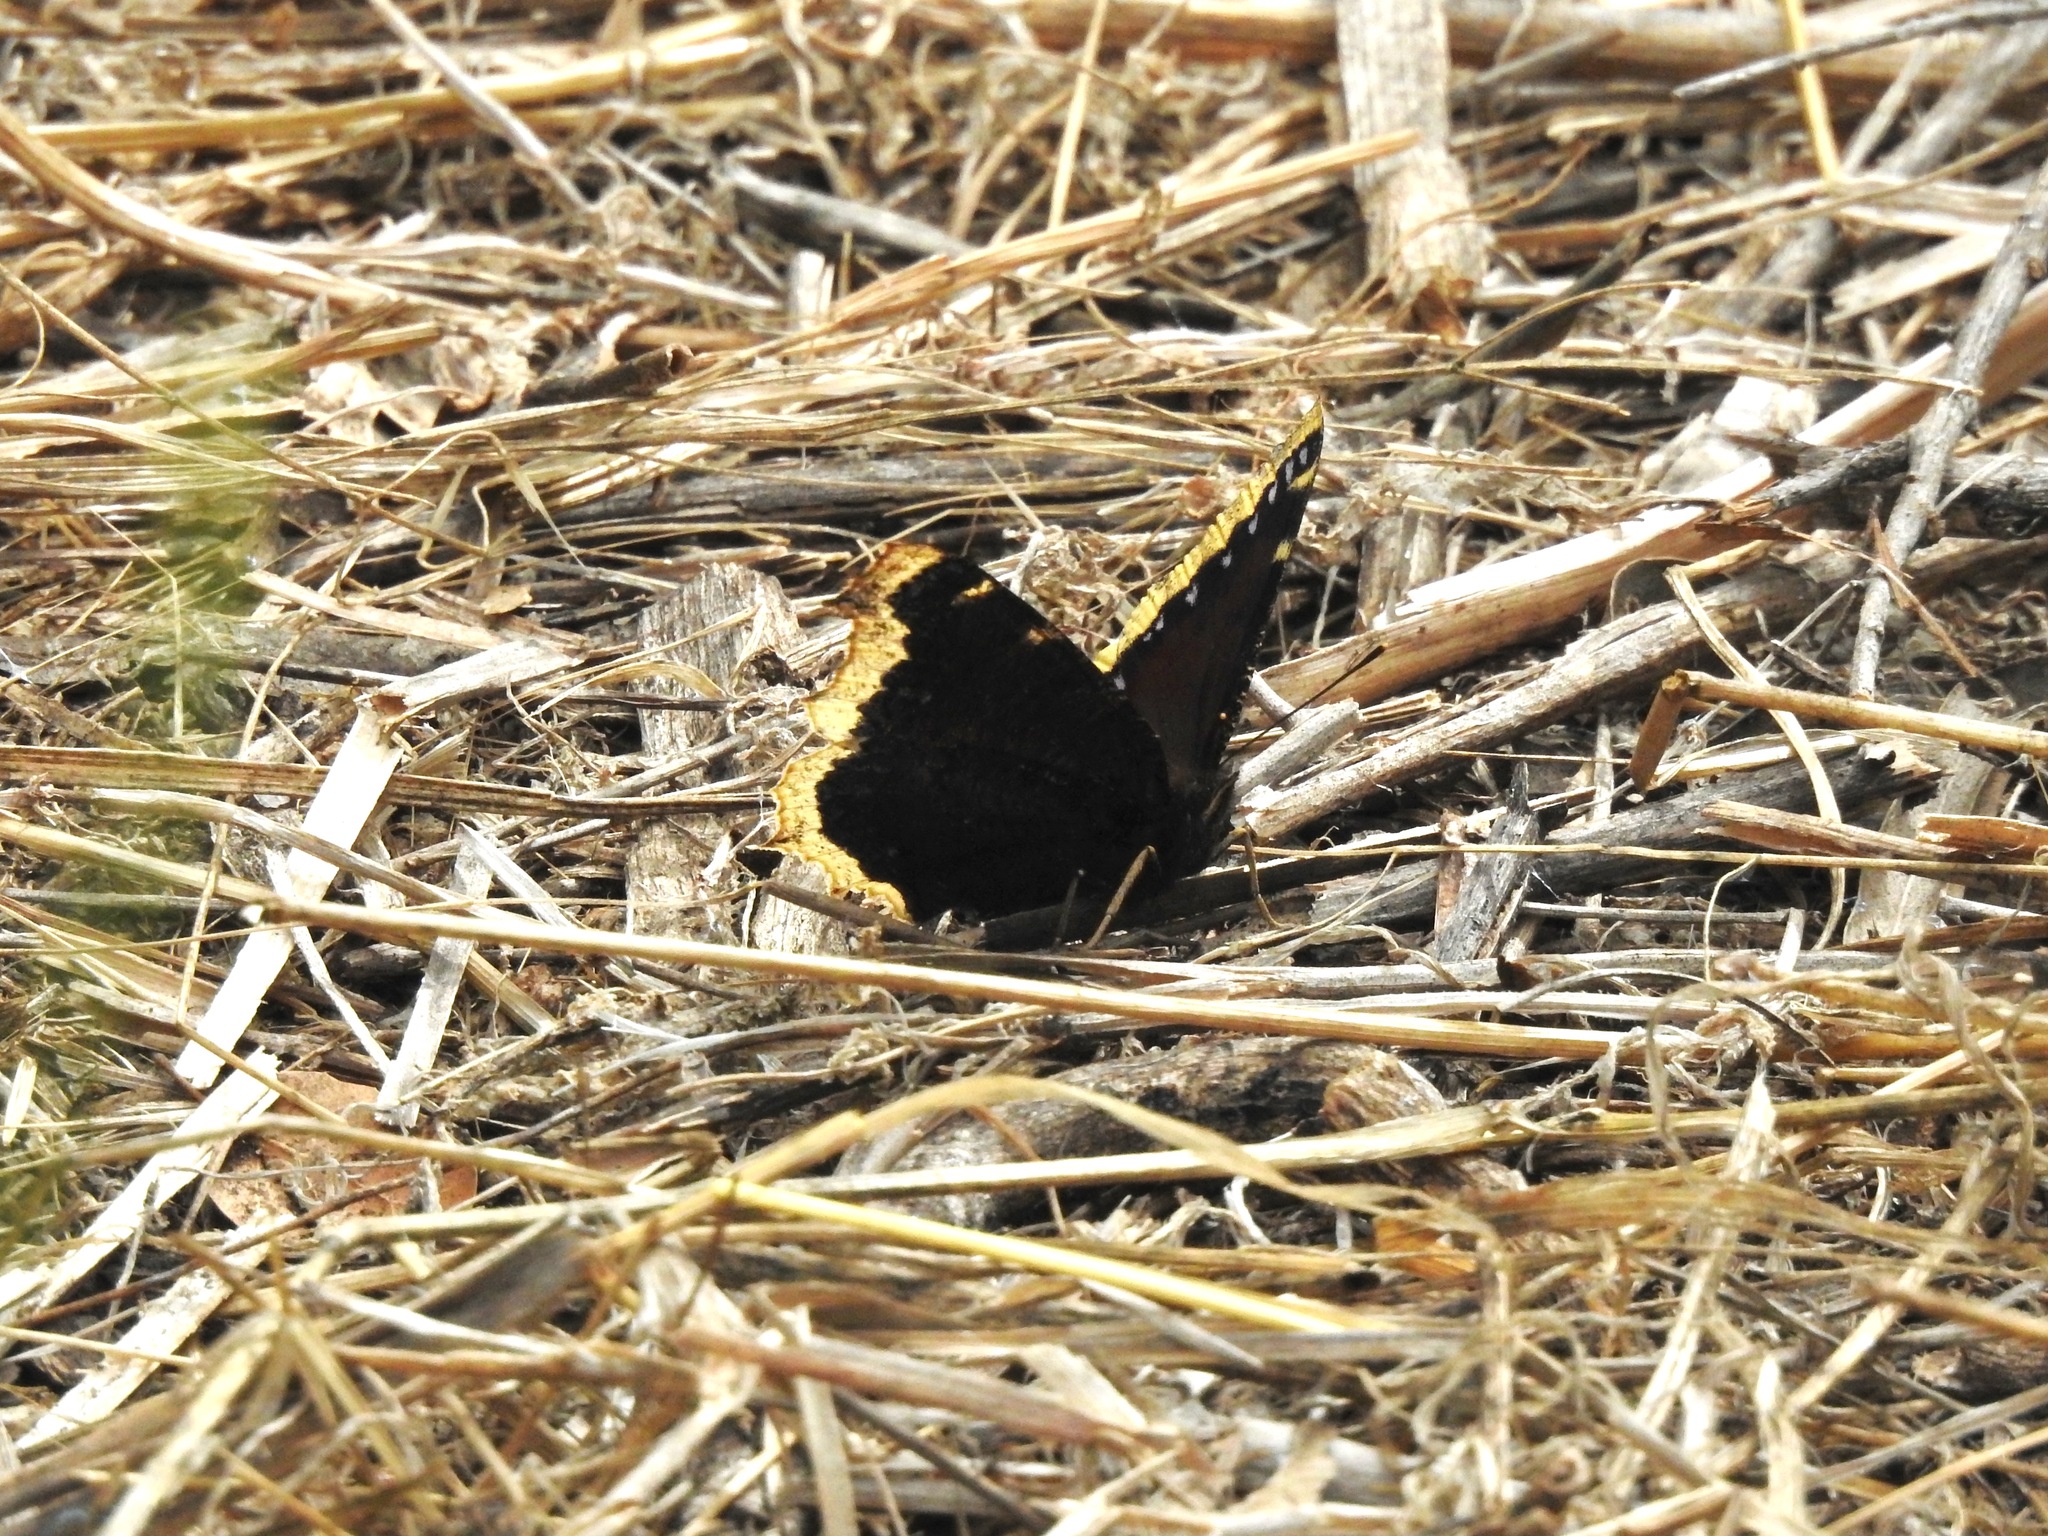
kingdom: Animalia
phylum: Arthropoda
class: Insecta
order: Lepidoptera
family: Nymphalidae
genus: Nymphalis
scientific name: Nymphalis antiopa
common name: Camberwell beauty
